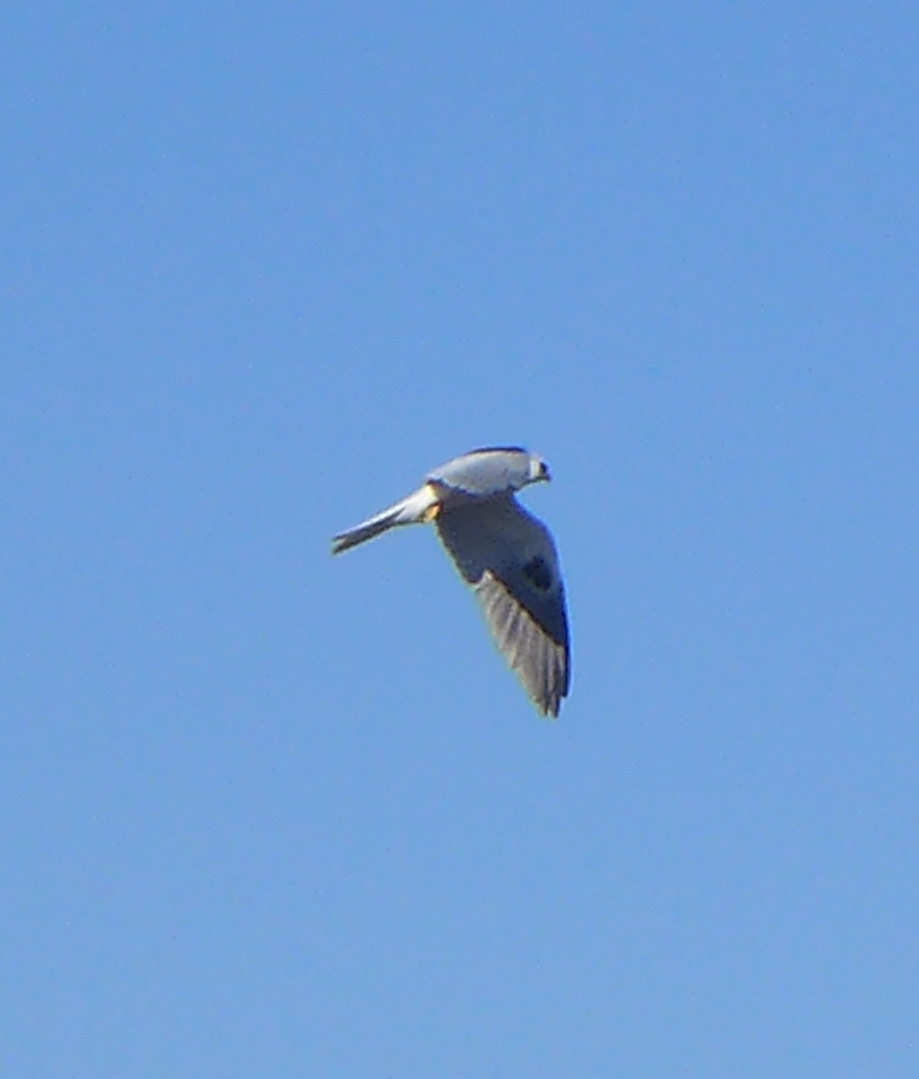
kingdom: Animalia
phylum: Chordata
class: Aves
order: Accipitriformes
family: Accipitridae
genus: Elanus
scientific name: Elanus leucurus
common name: White-tailed kite
